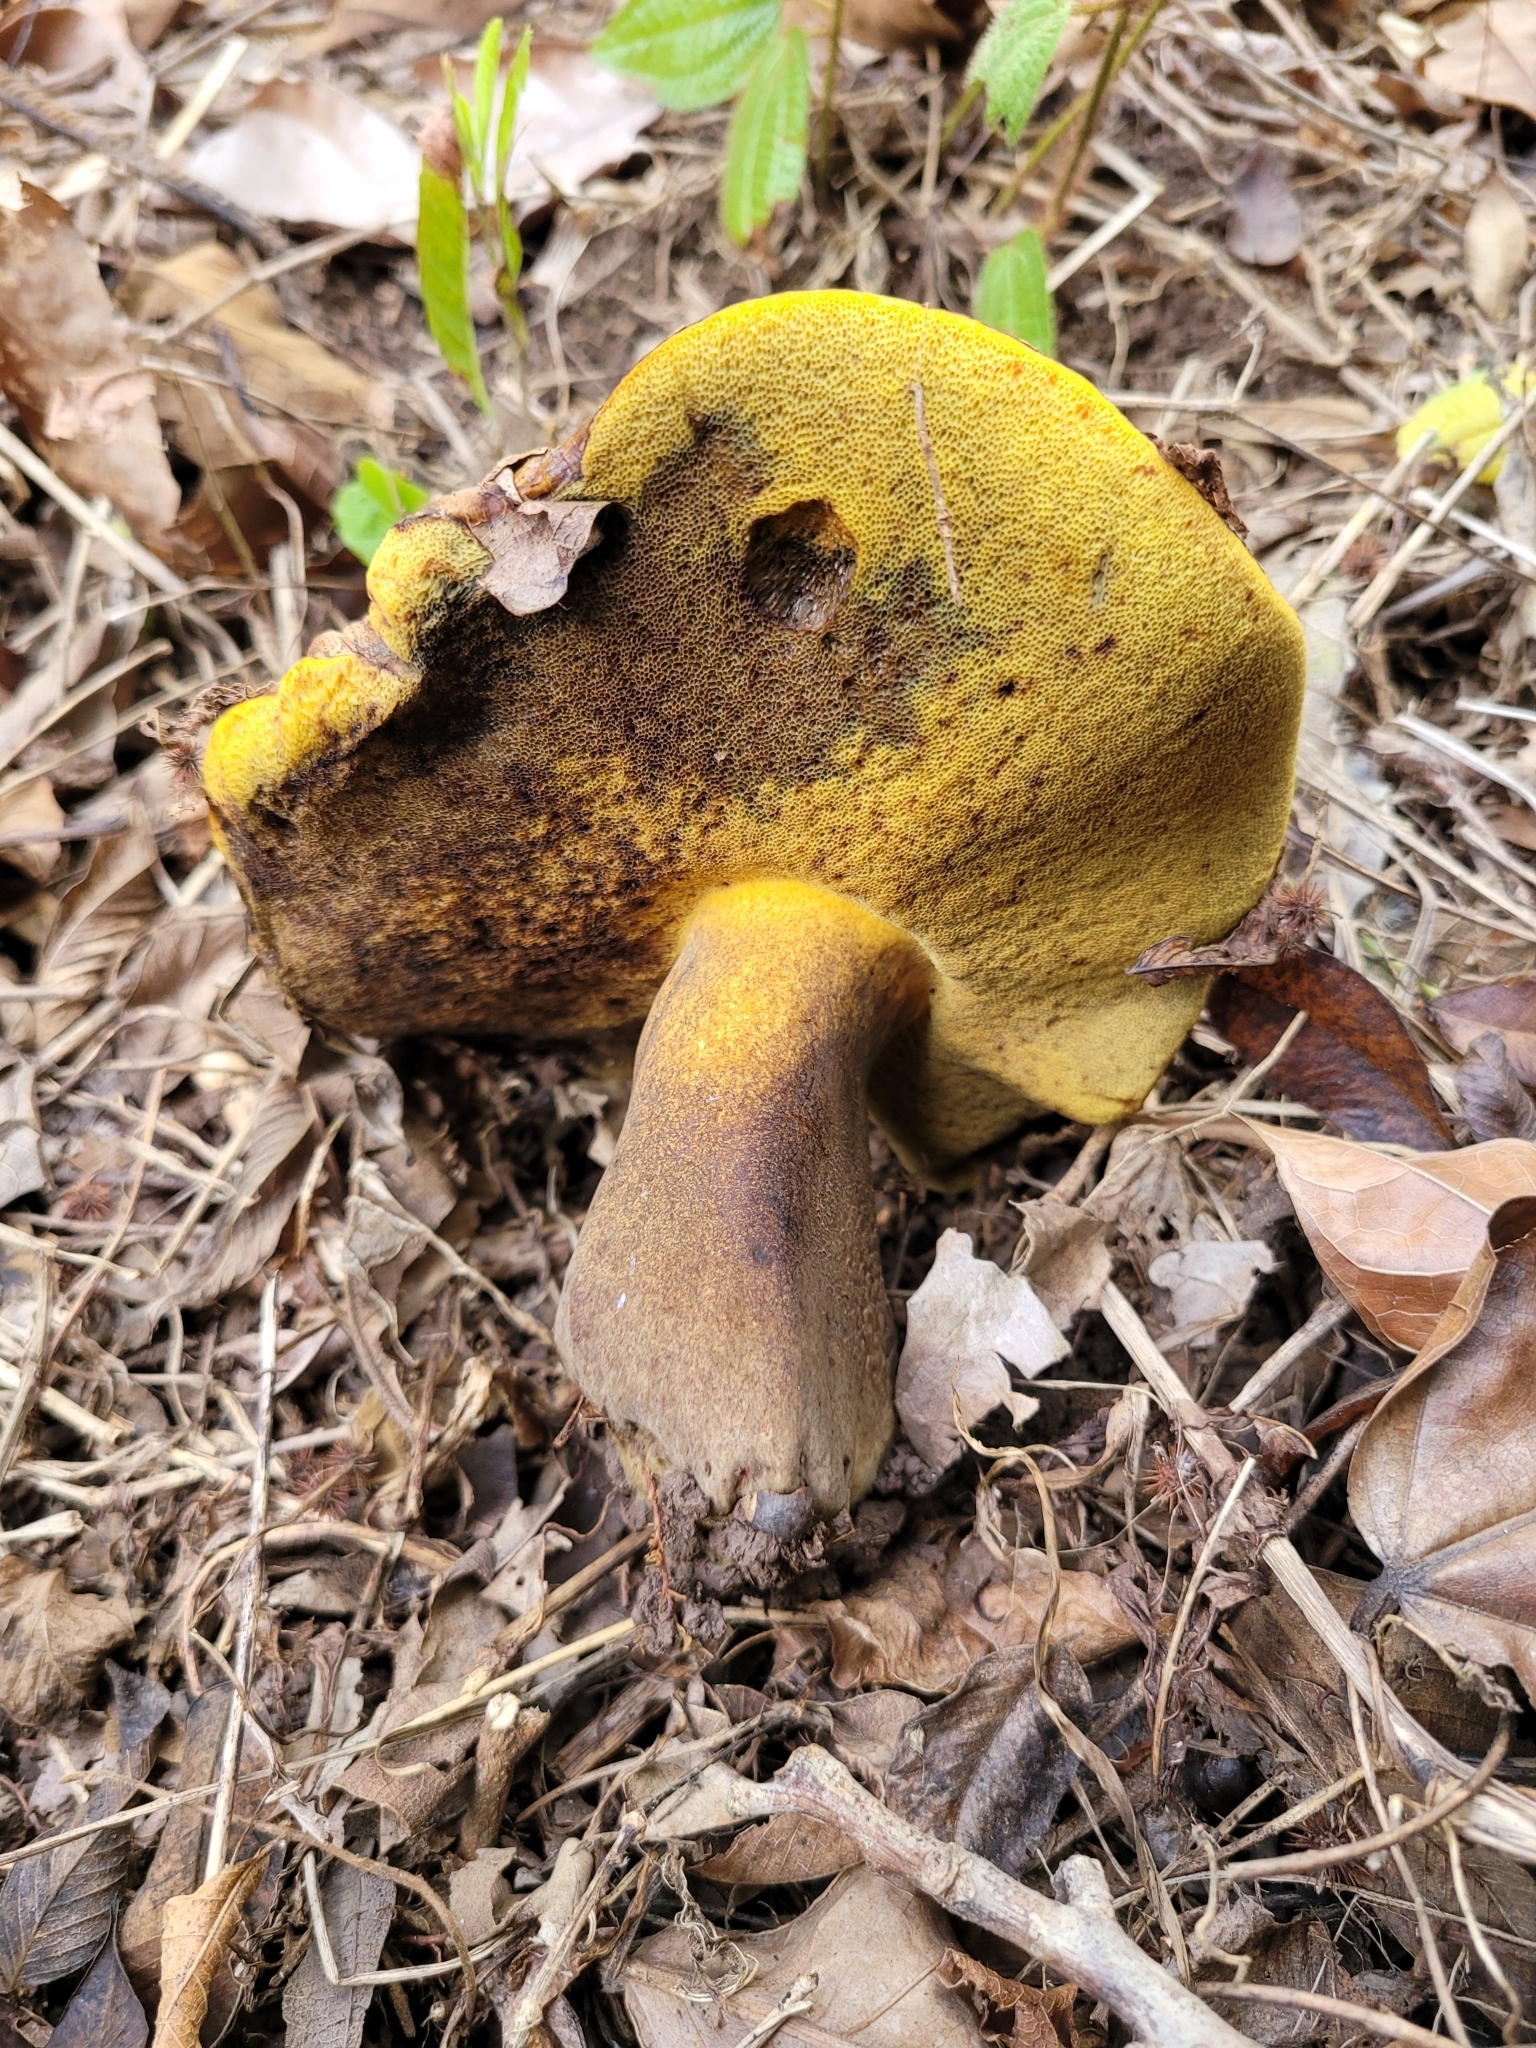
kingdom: Fungi
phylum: Basidiomycota
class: Agaricomycetes
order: Boletales
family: Boletinellaceae
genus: Phlebopus
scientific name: Phlebopus beniensis
